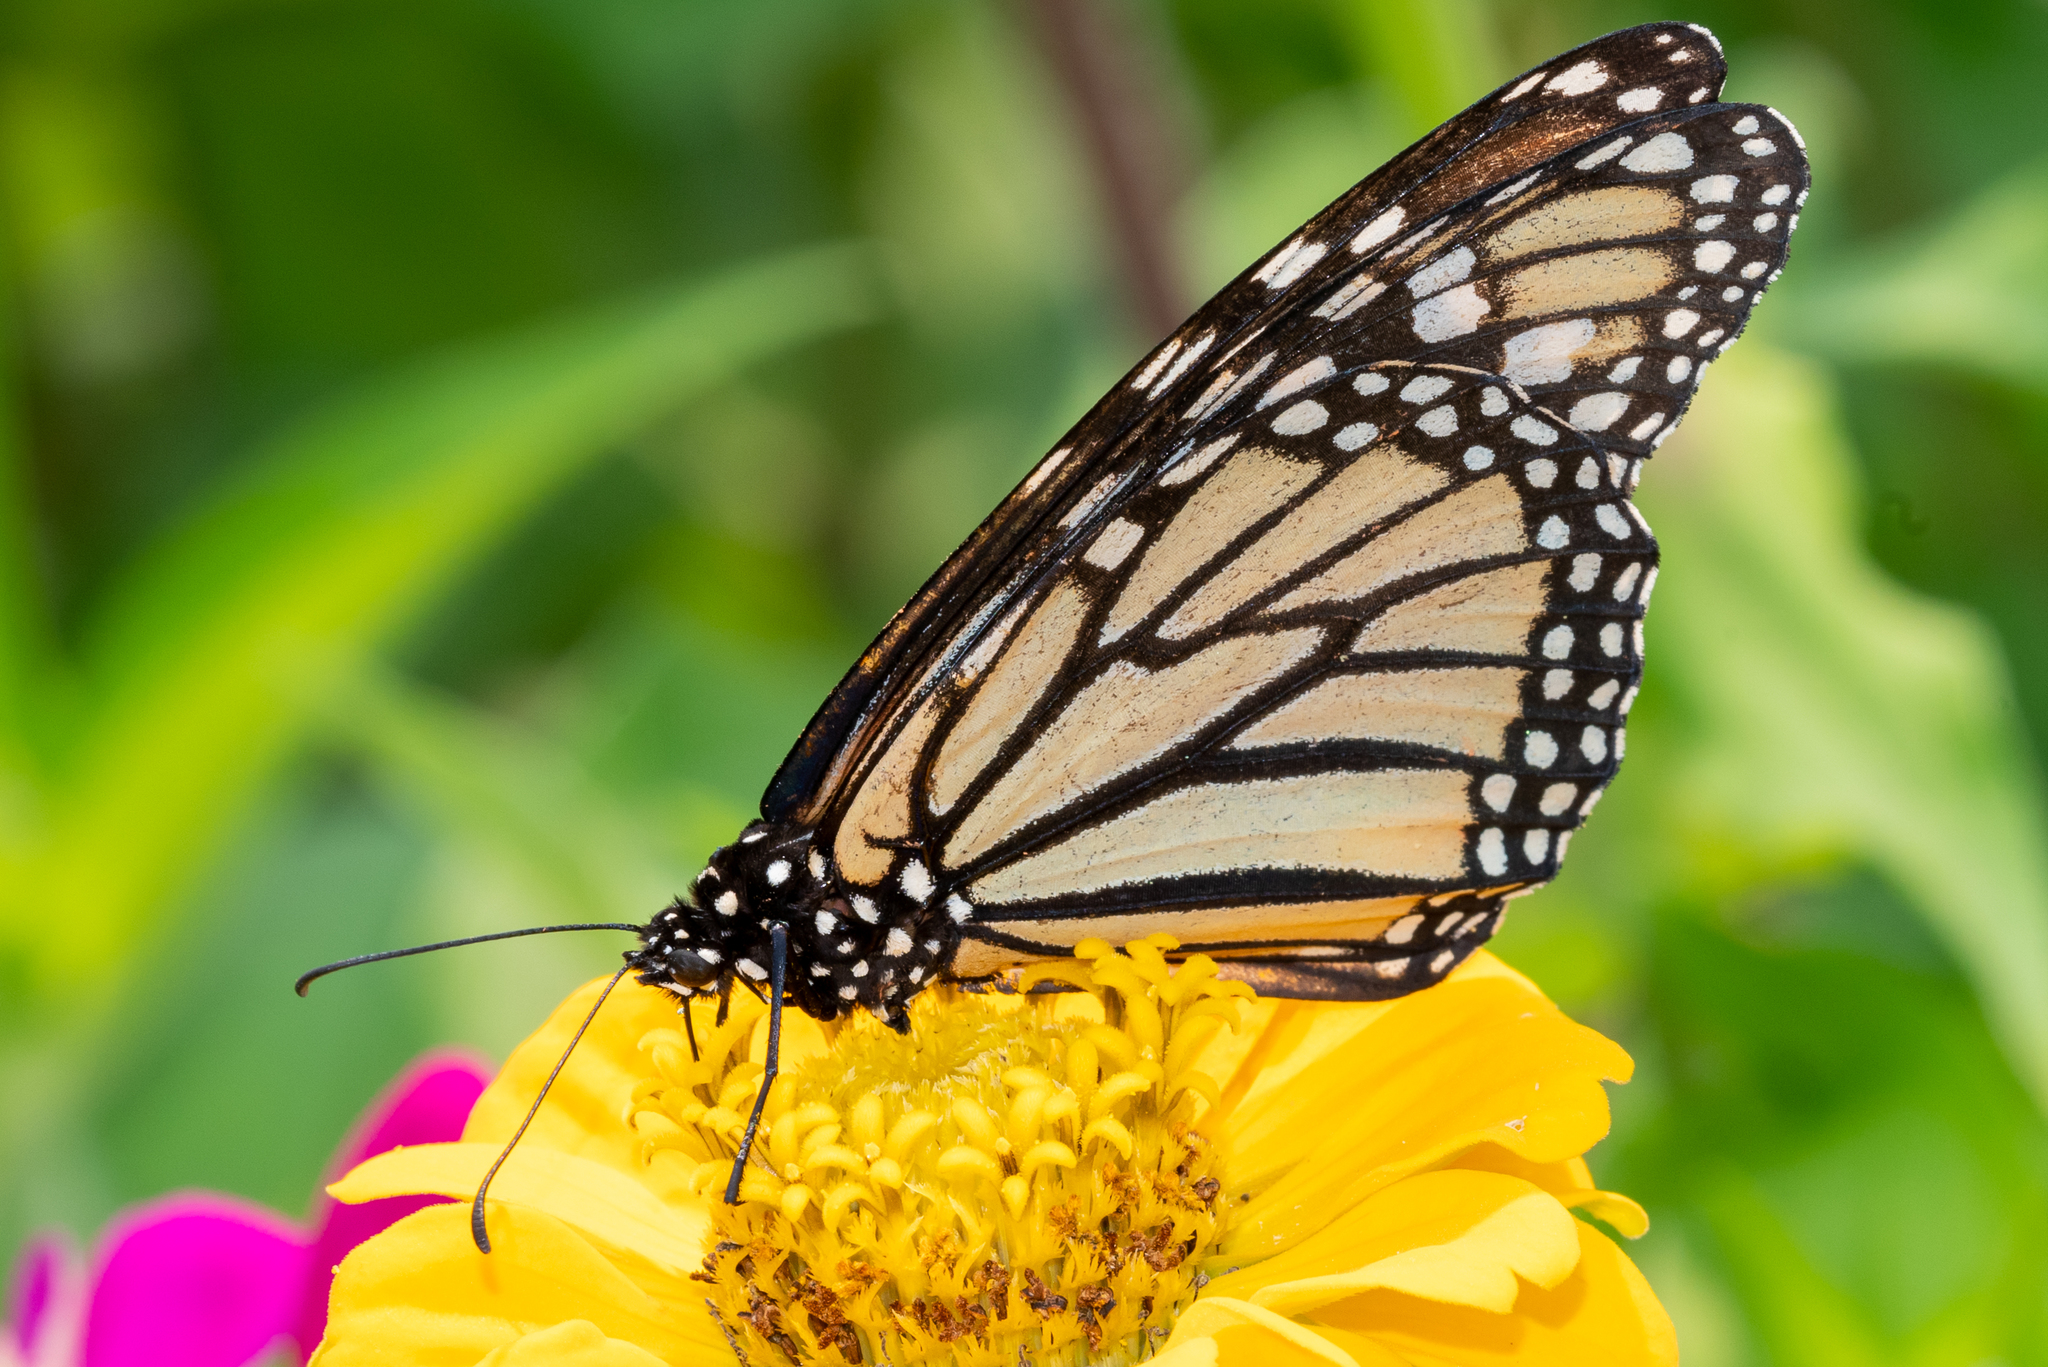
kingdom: Animalia
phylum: Arthropoda
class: Insecta
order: Lepidoptera
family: Nymphalidae
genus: Danaus
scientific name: Danaus plexippus
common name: Monarch
